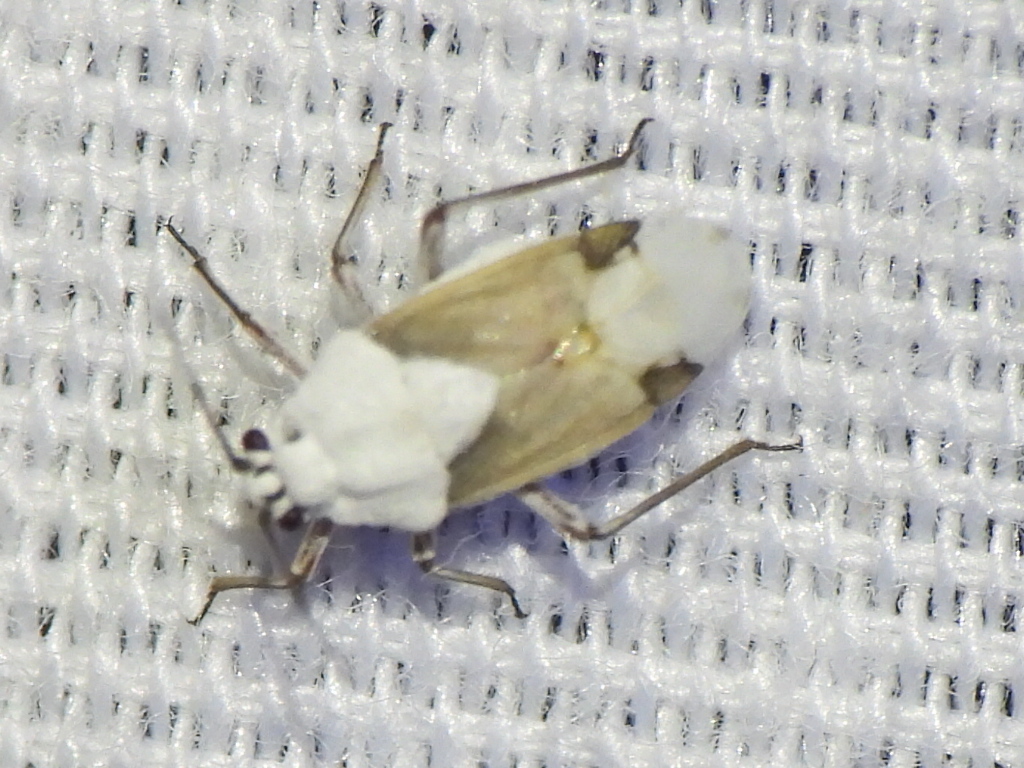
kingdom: Animalia
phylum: Arthropoda
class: Insecta
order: Hemiptera
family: Miridae
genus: Clivinema
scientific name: Clivinema villosa
